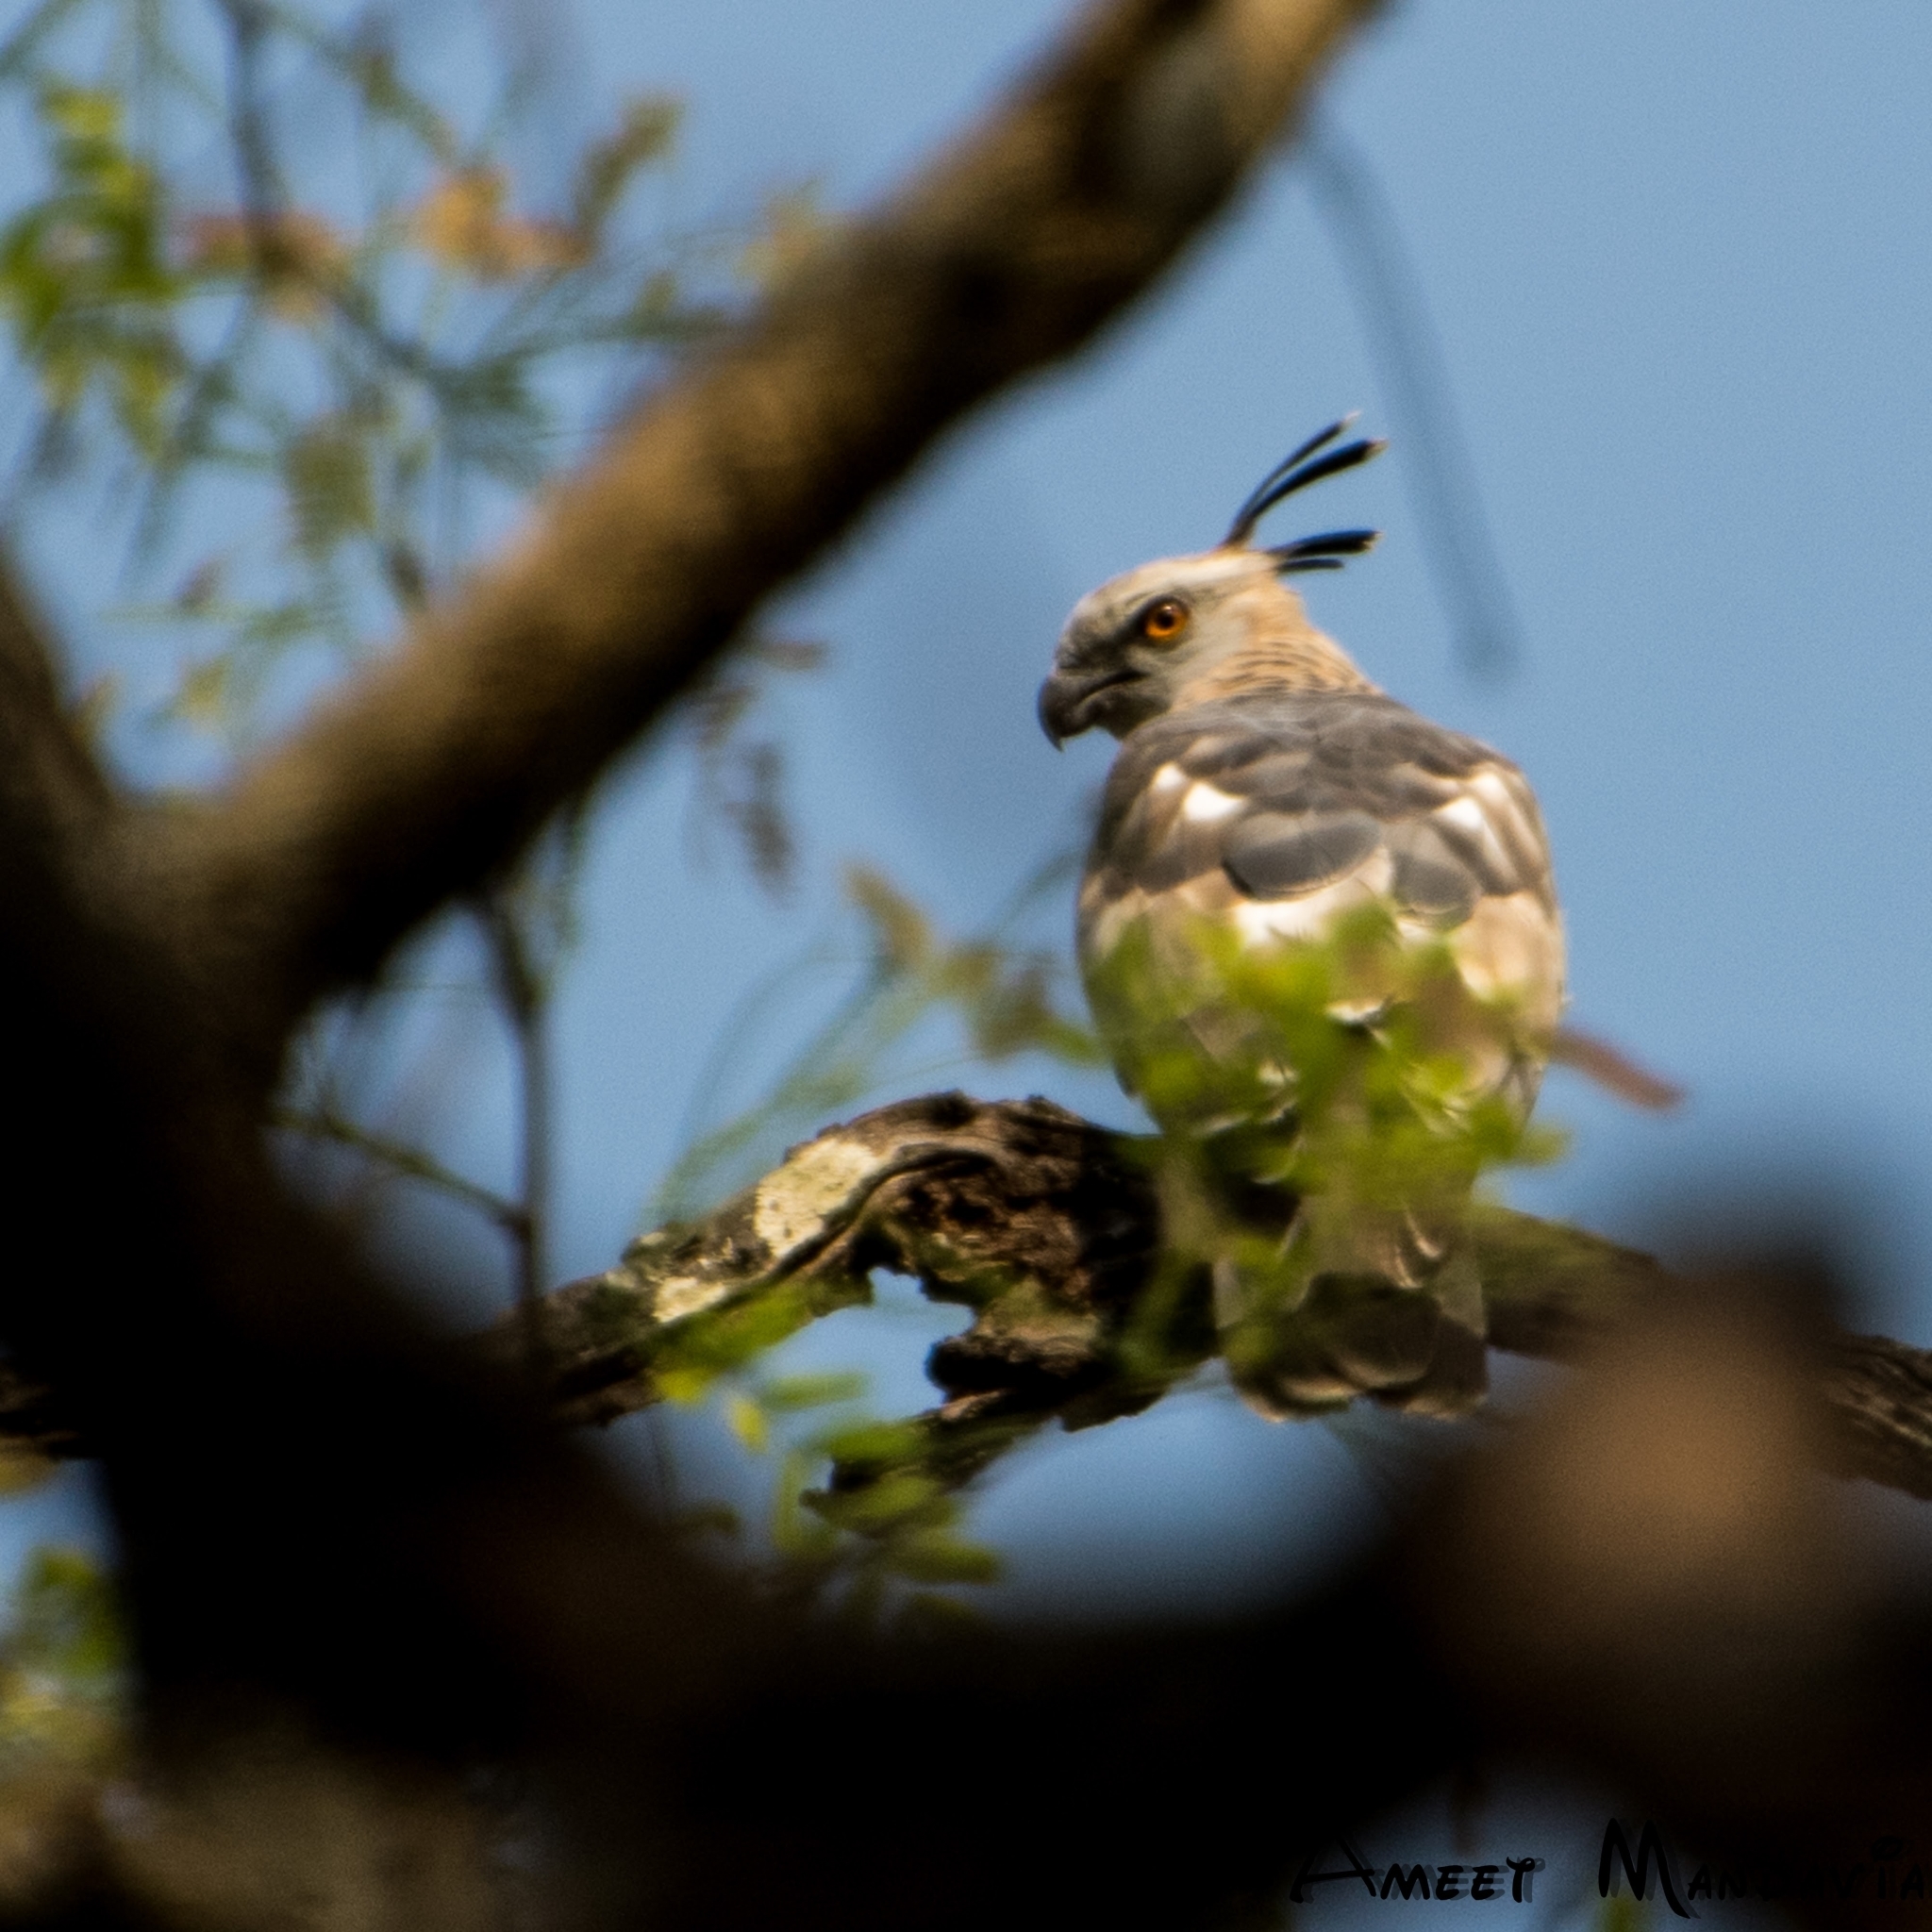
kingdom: Animalia
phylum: Chordata
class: Aves
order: Accipitriformes
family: Accipitridae
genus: Aviceda
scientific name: Aviceda jerdoni
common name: Jerdon's baza
